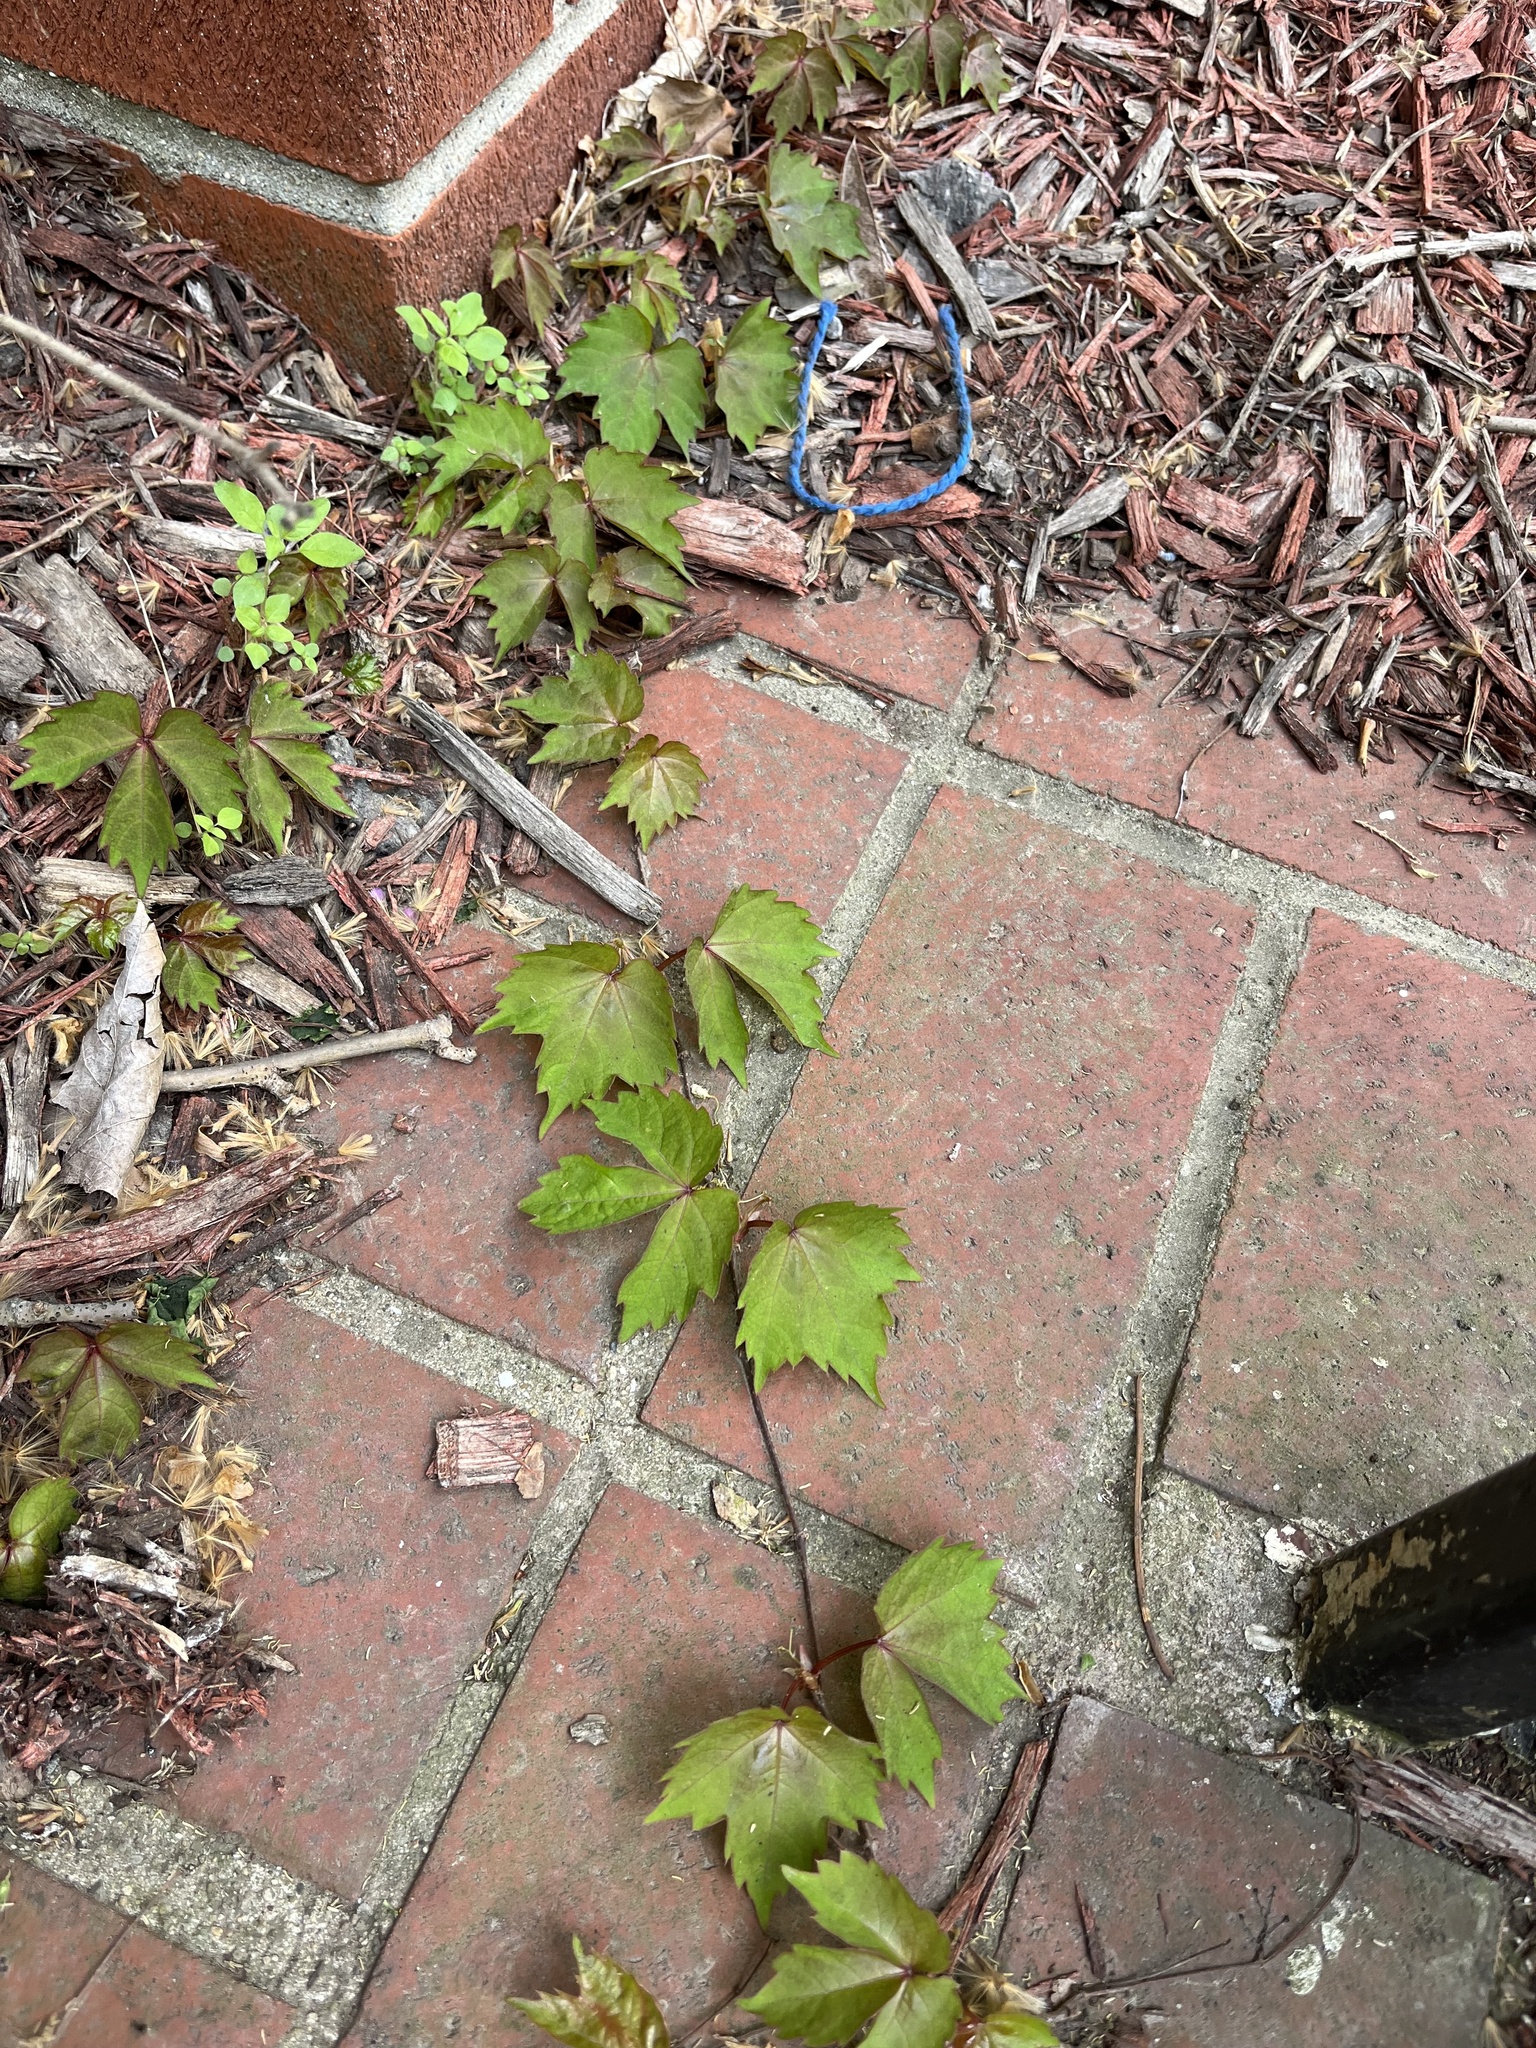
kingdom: Plantae
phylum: Tracheophyta
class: Magnoliopsida
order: Vitales
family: Vitaceae
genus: Parthenocissus
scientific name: Parthenocissus tricuspidata
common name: Boston ivy
